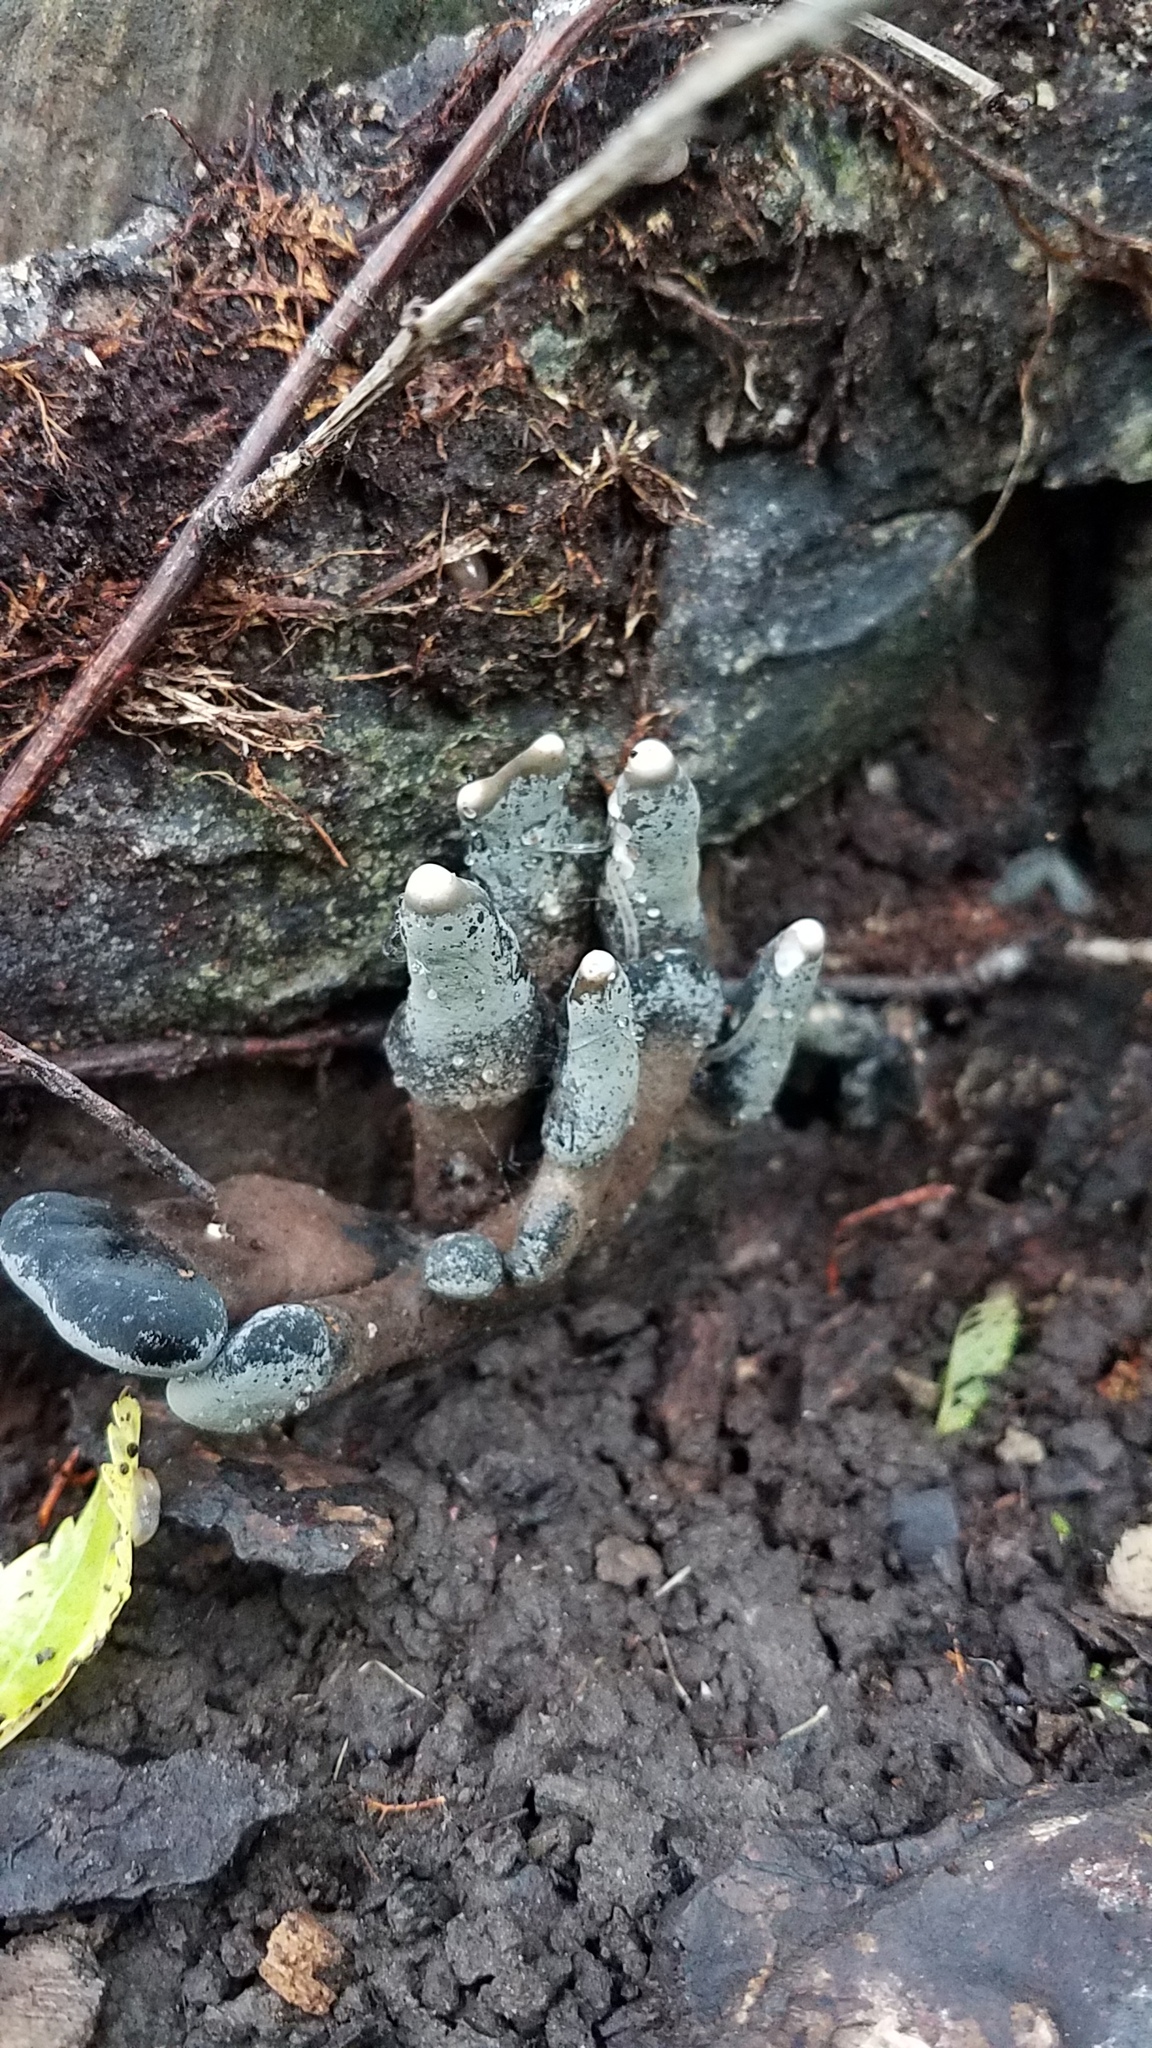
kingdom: Fungi
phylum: Ascomycota
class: Sordariomycetes
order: Xylariales
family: Xylariaceae
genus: Xylaria
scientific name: Xylaria polymorpha
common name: Dead man's fingers
